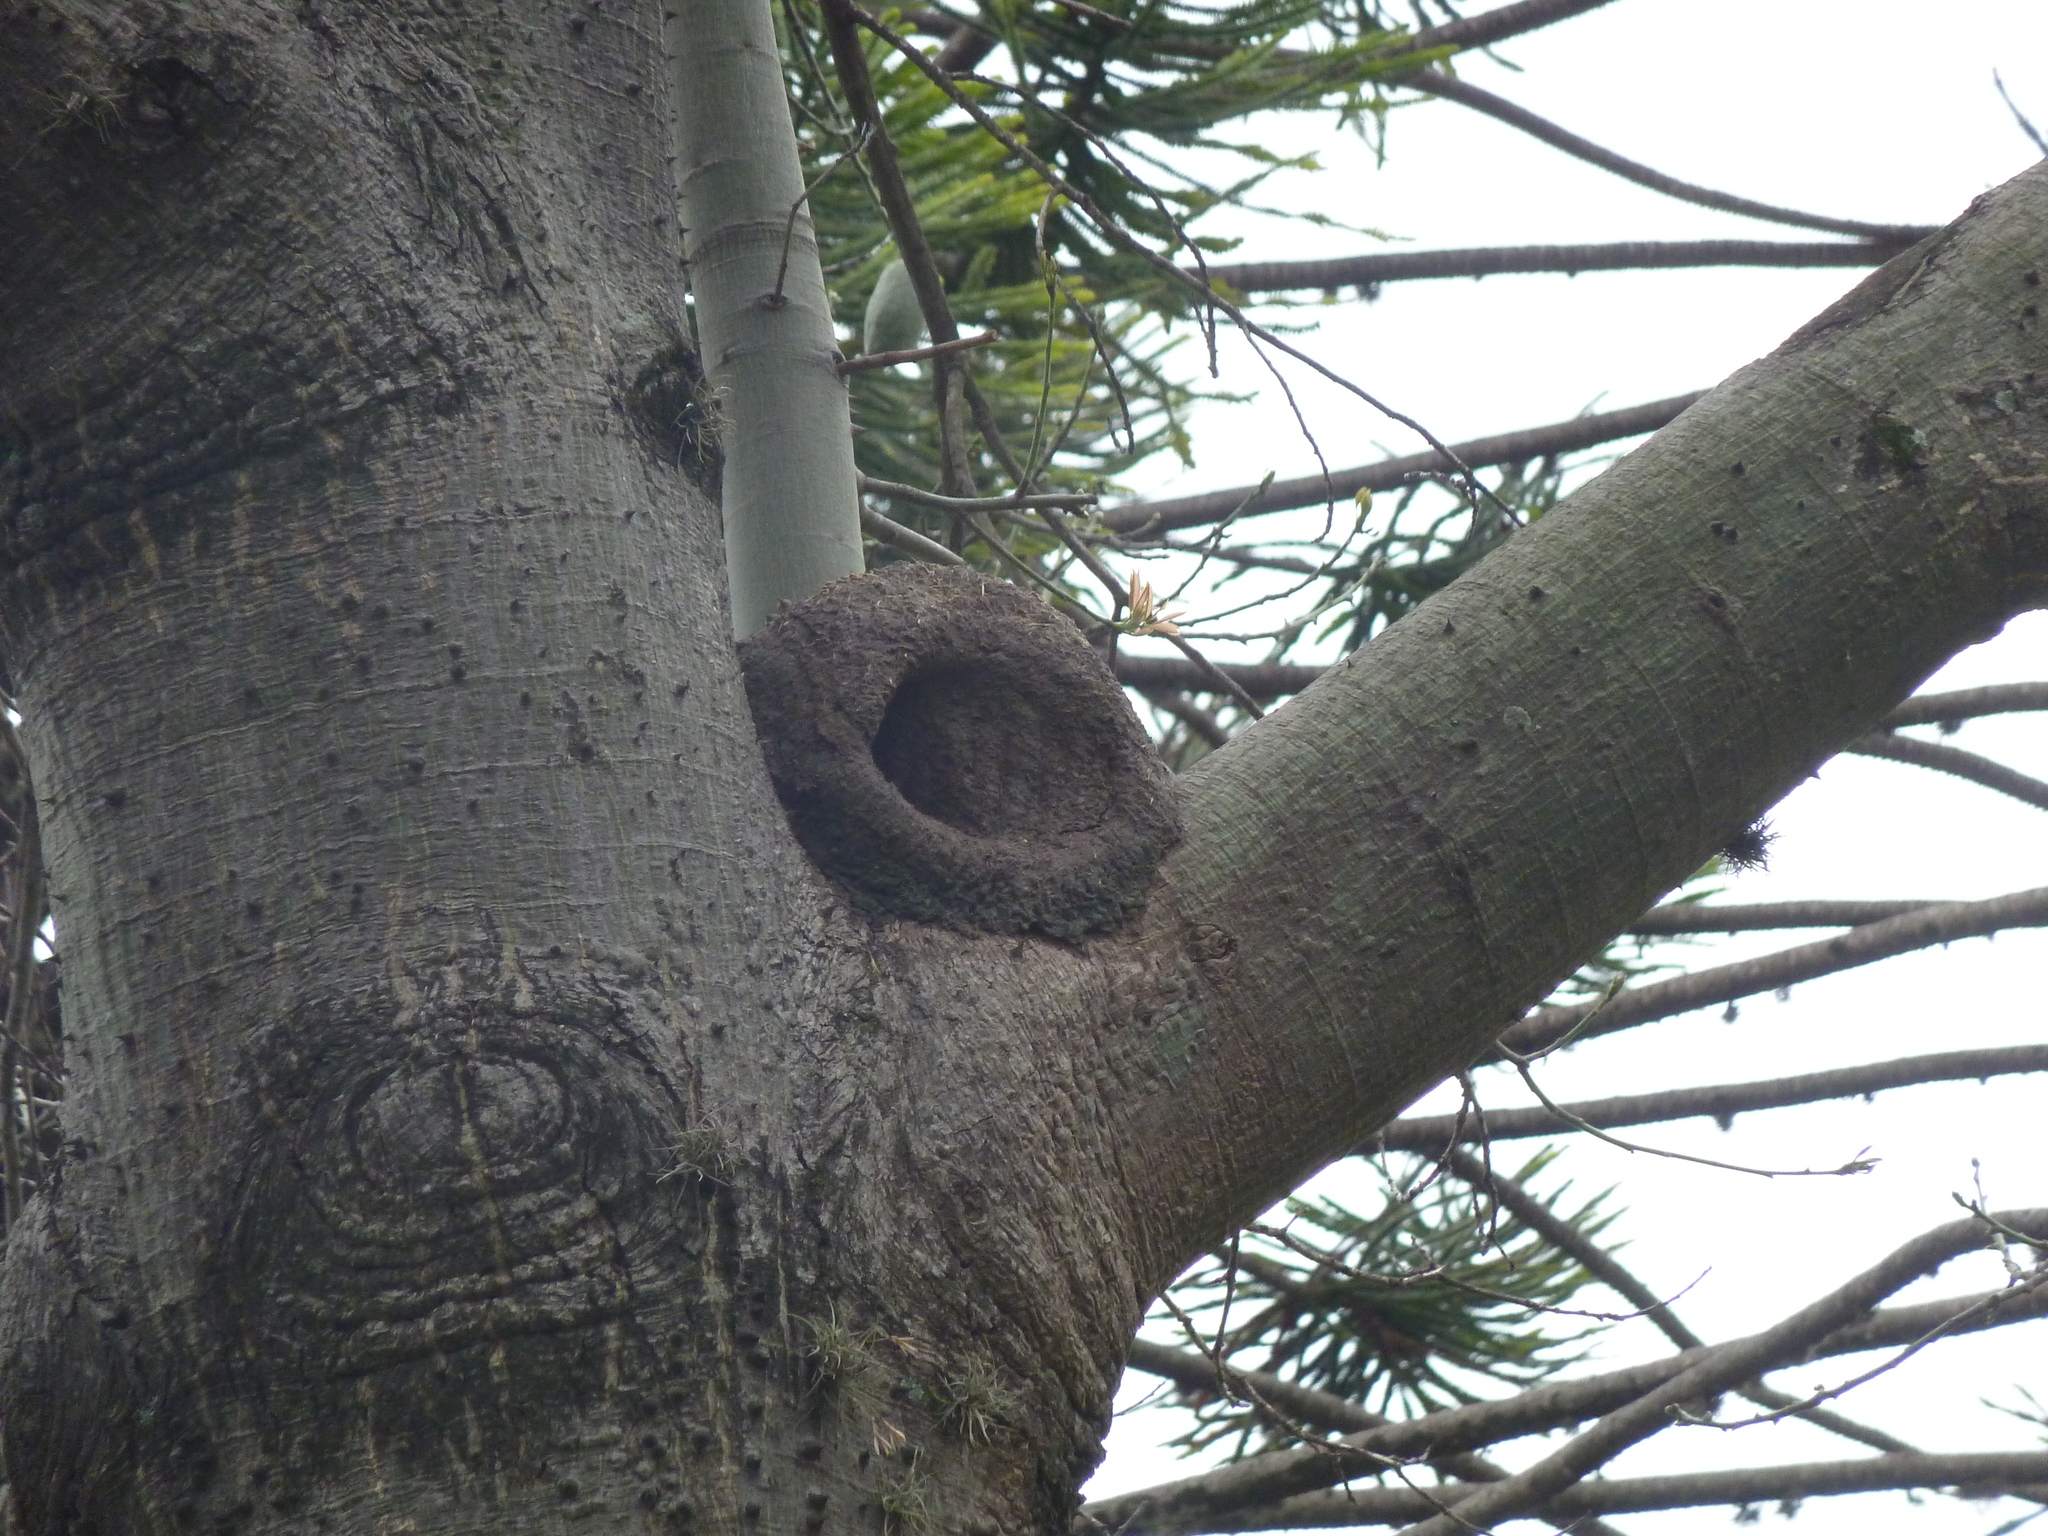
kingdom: Animalia
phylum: Chordata
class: Aves
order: Passeriformes
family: Furnariidae
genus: Furnarius
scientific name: Furnarius rufus
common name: Rufous hornero
